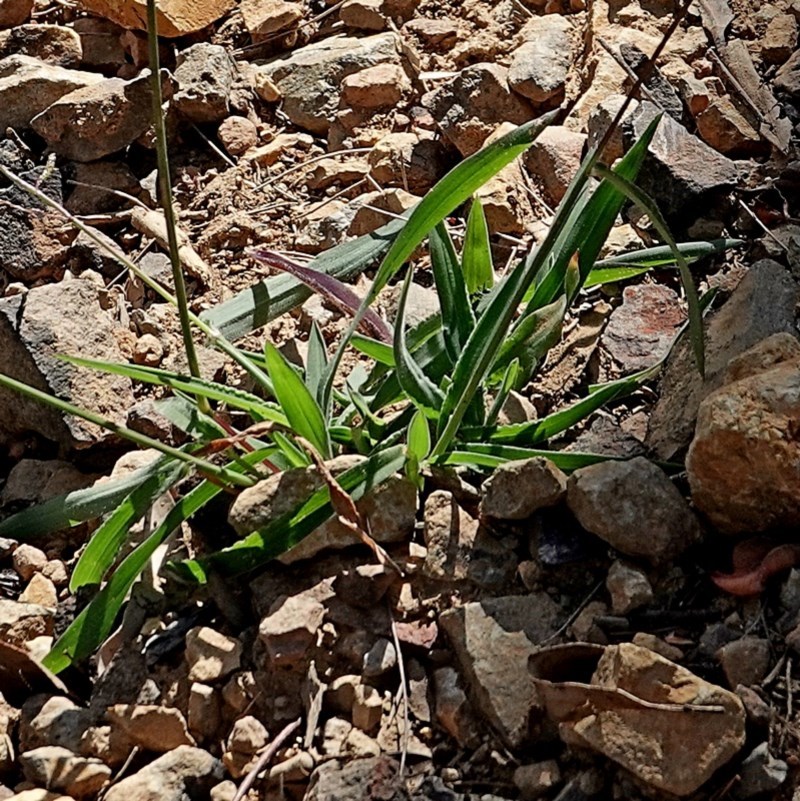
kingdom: Plantae
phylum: Tracheophyta
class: Liliopsida
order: Poales
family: Poaceae
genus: Digitaria
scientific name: Digitaria ramularis
